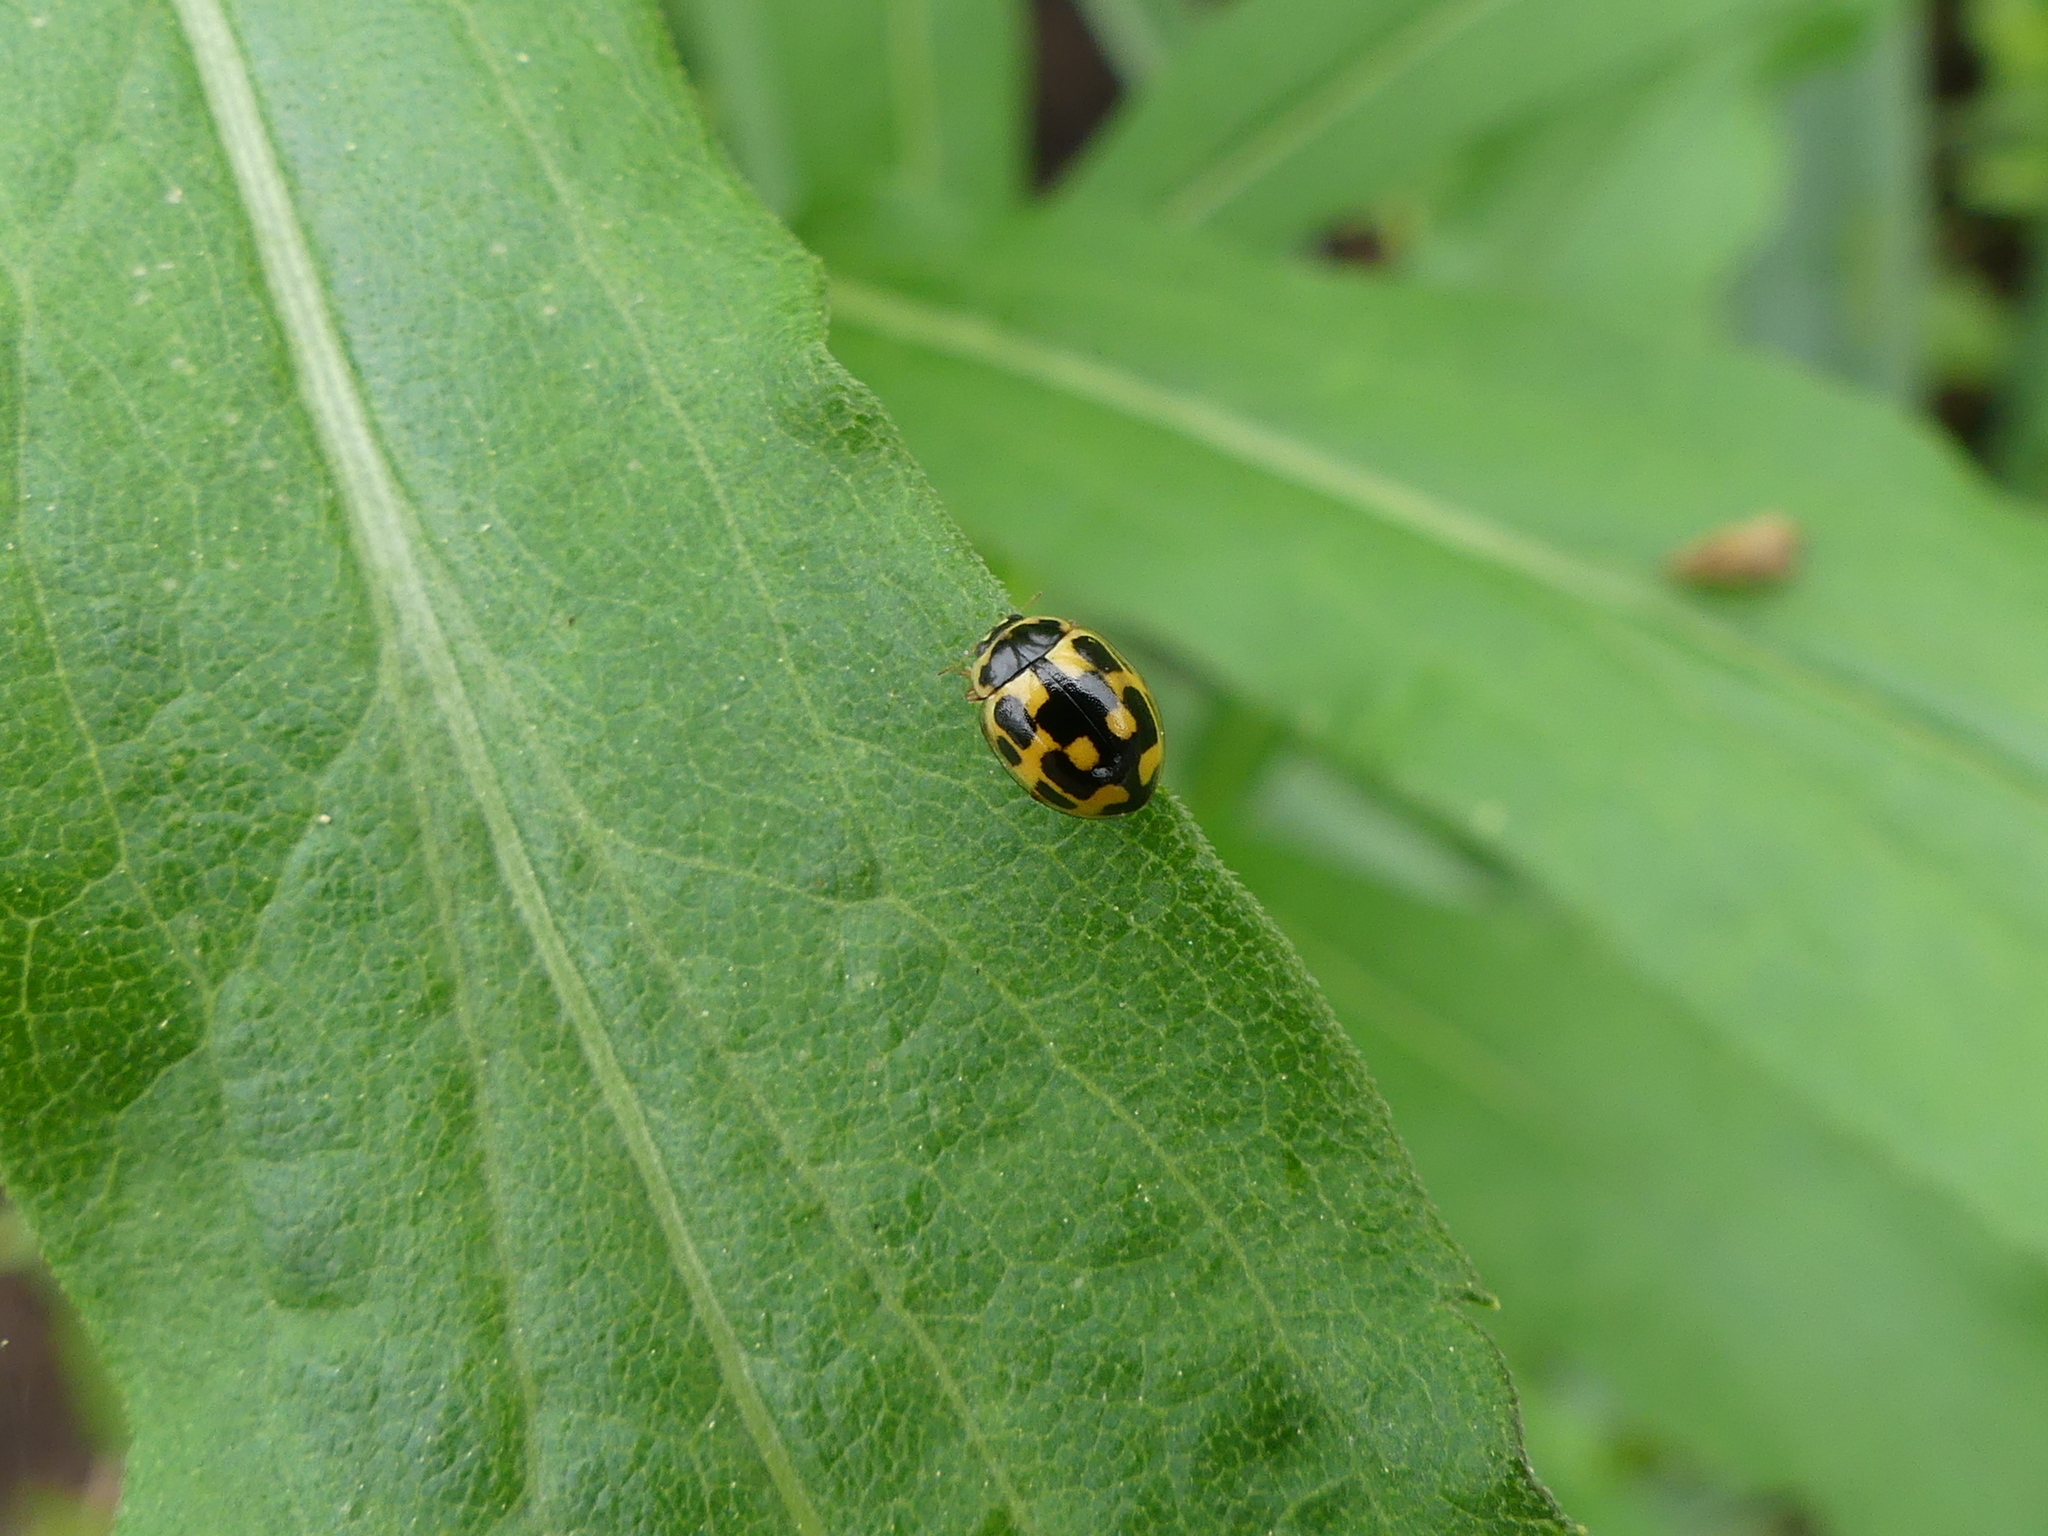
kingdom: Animalia
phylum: Arthropoda
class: Insecta
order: Coleoptera
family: Coccinellidae
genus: Propylaea
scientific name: Propylaea quatuordecimpunctata
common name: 14-spotted ladybird beetle
